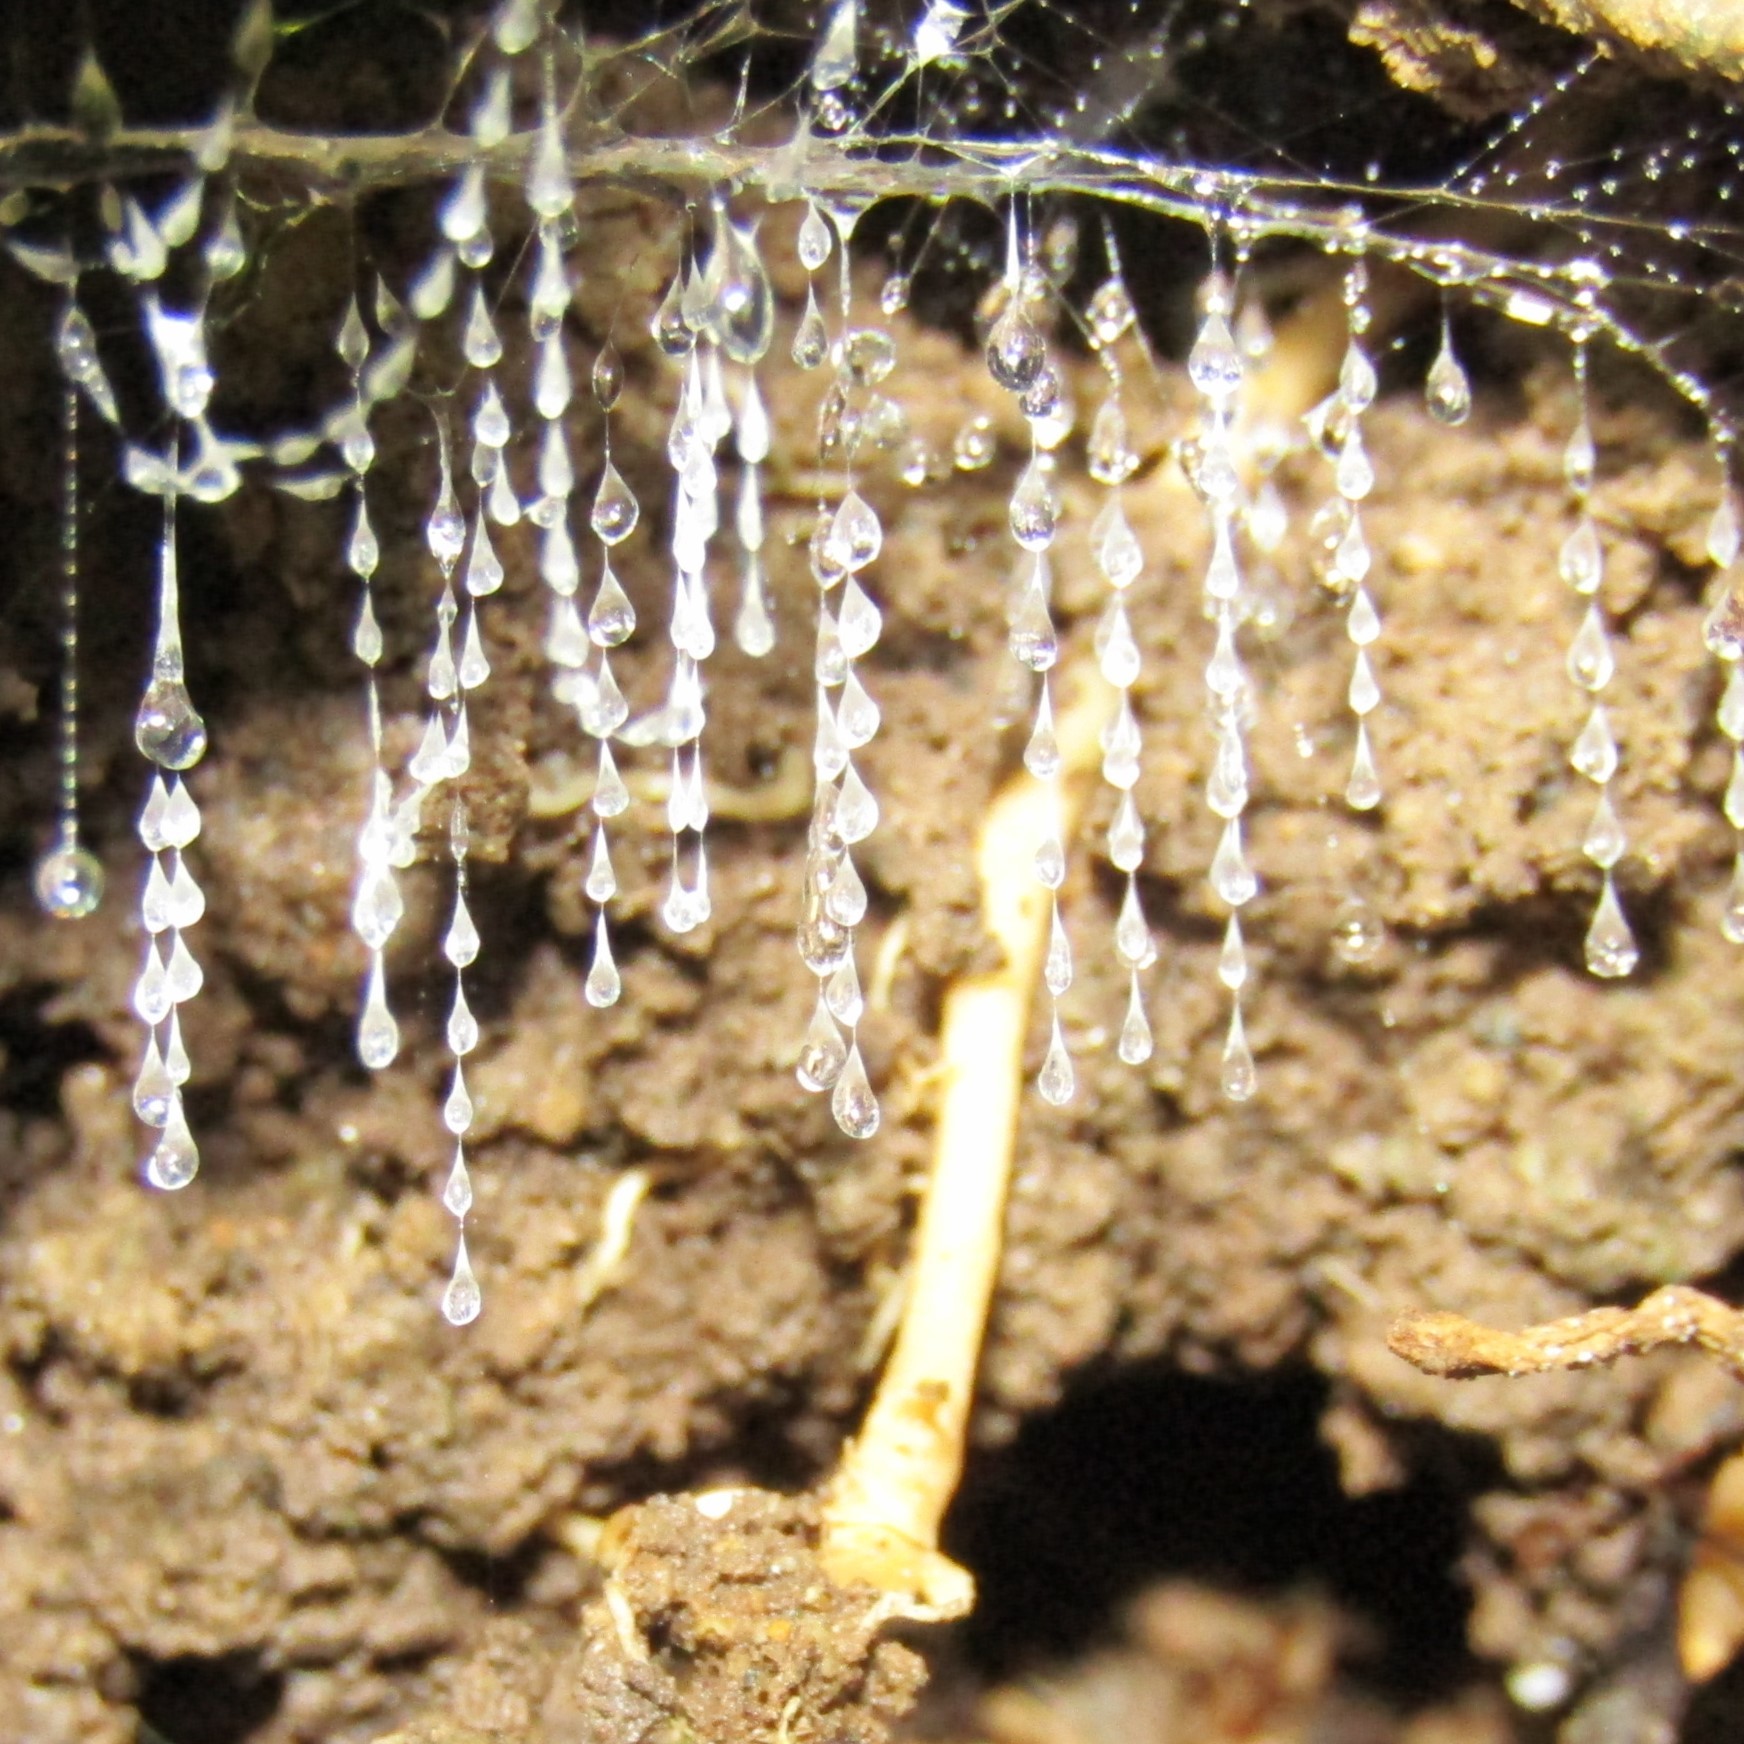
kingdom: Animalia
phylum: Arthropoda
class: Insecta
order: Diptera
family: Keroplatidae
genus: Arachnocampa
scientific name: Arachnocampa luminosa
